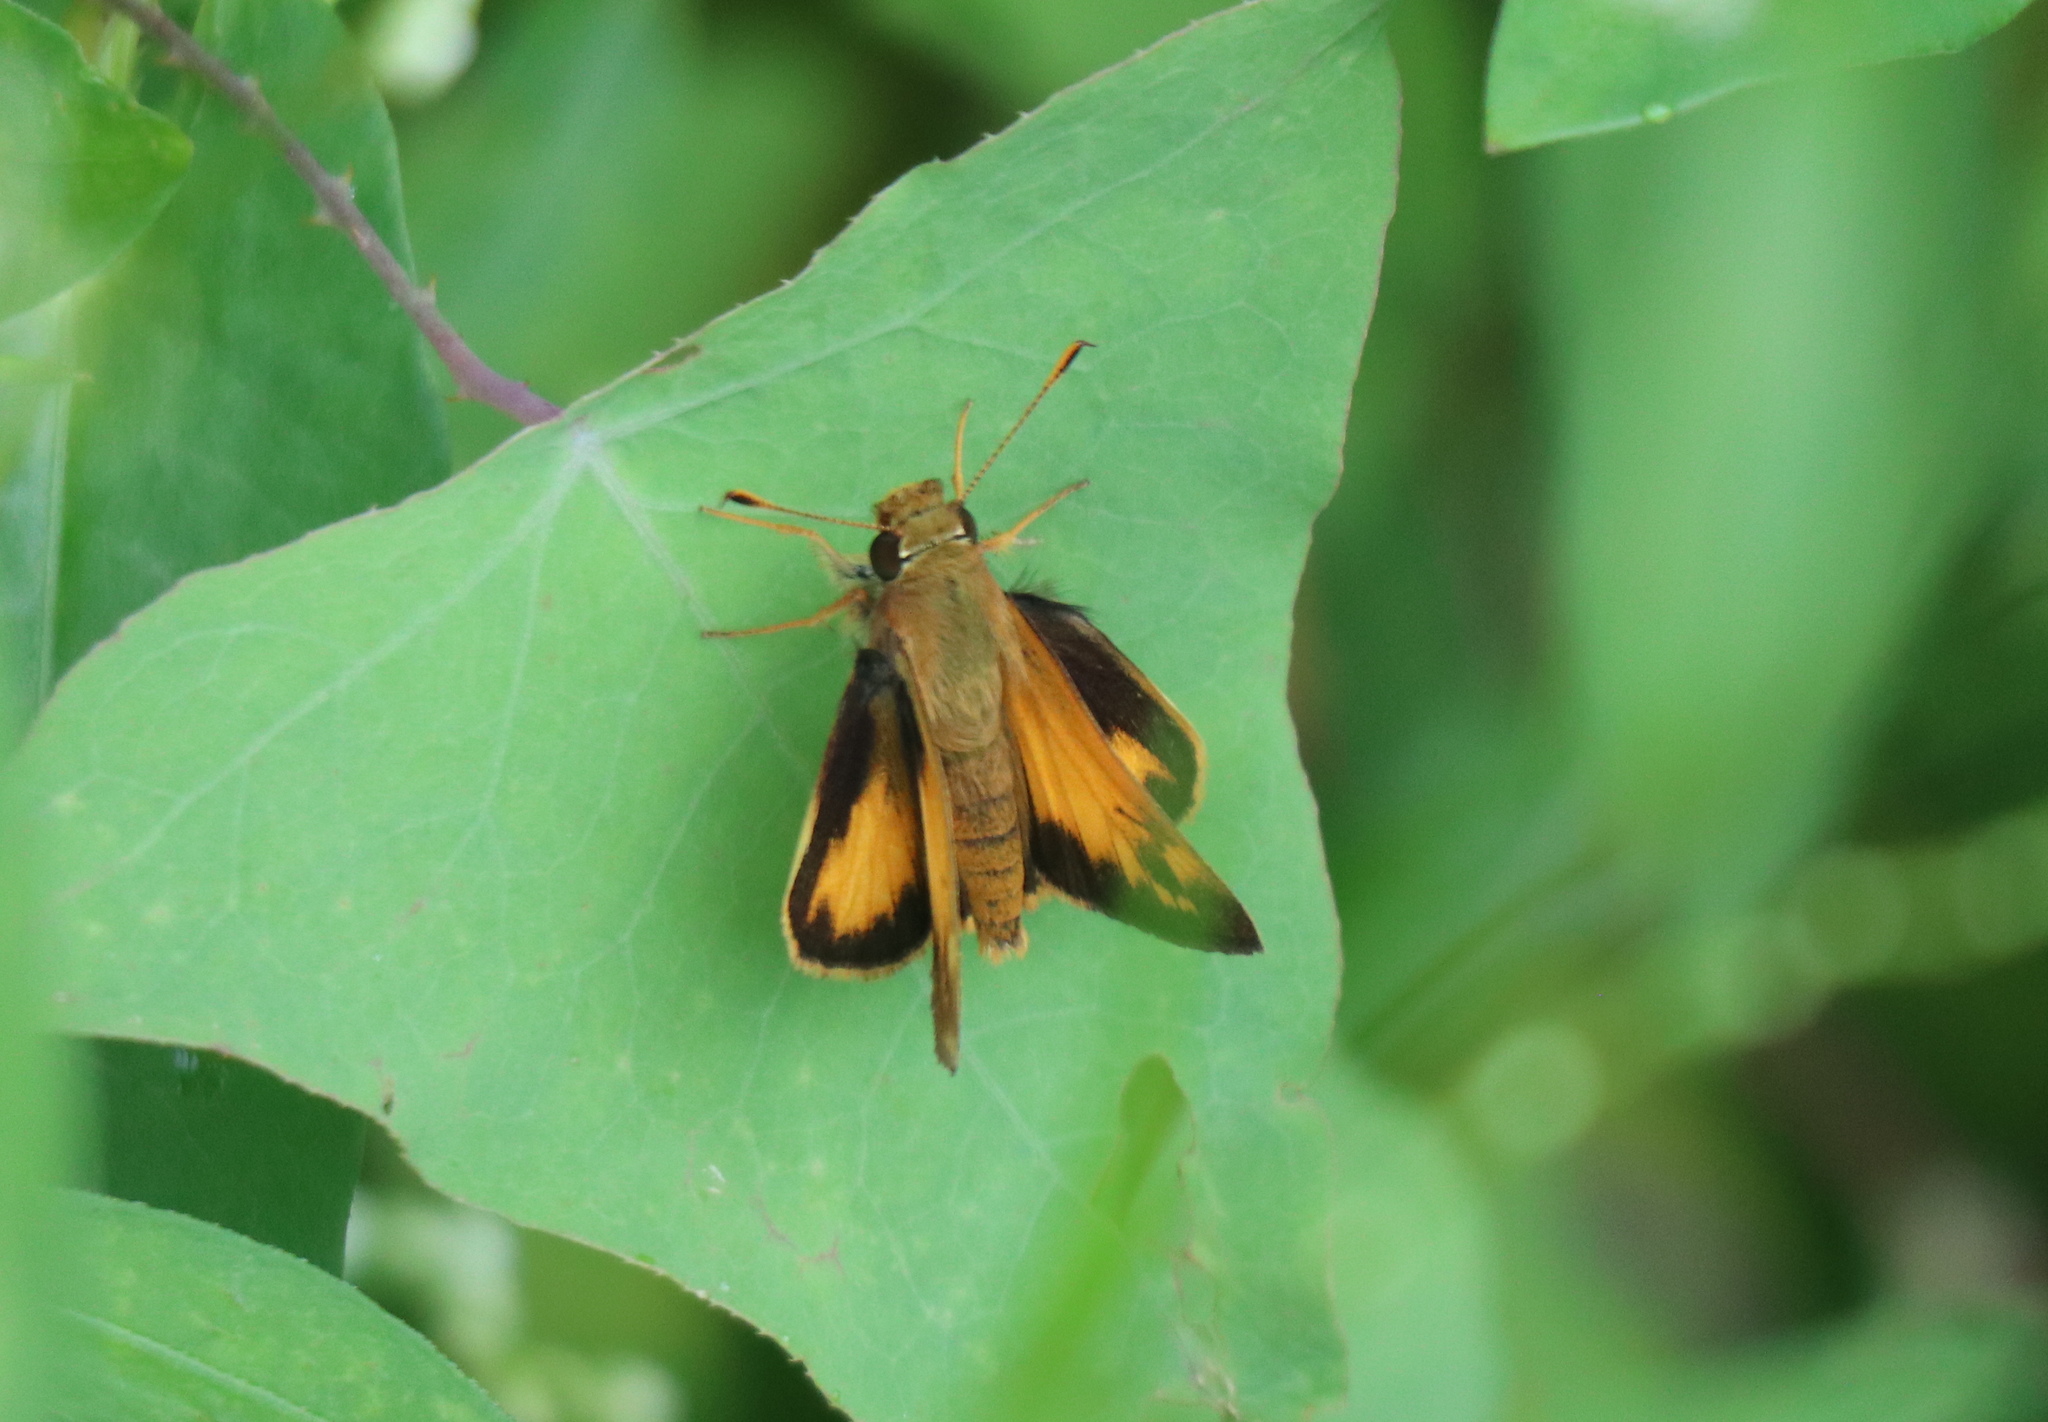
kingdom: Animalia
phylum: Arthropoda
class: Insecta
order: Lepidoptera
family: Hesperiidae
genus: Lon
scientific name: Lon zabulon
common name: Zabulon skipper
